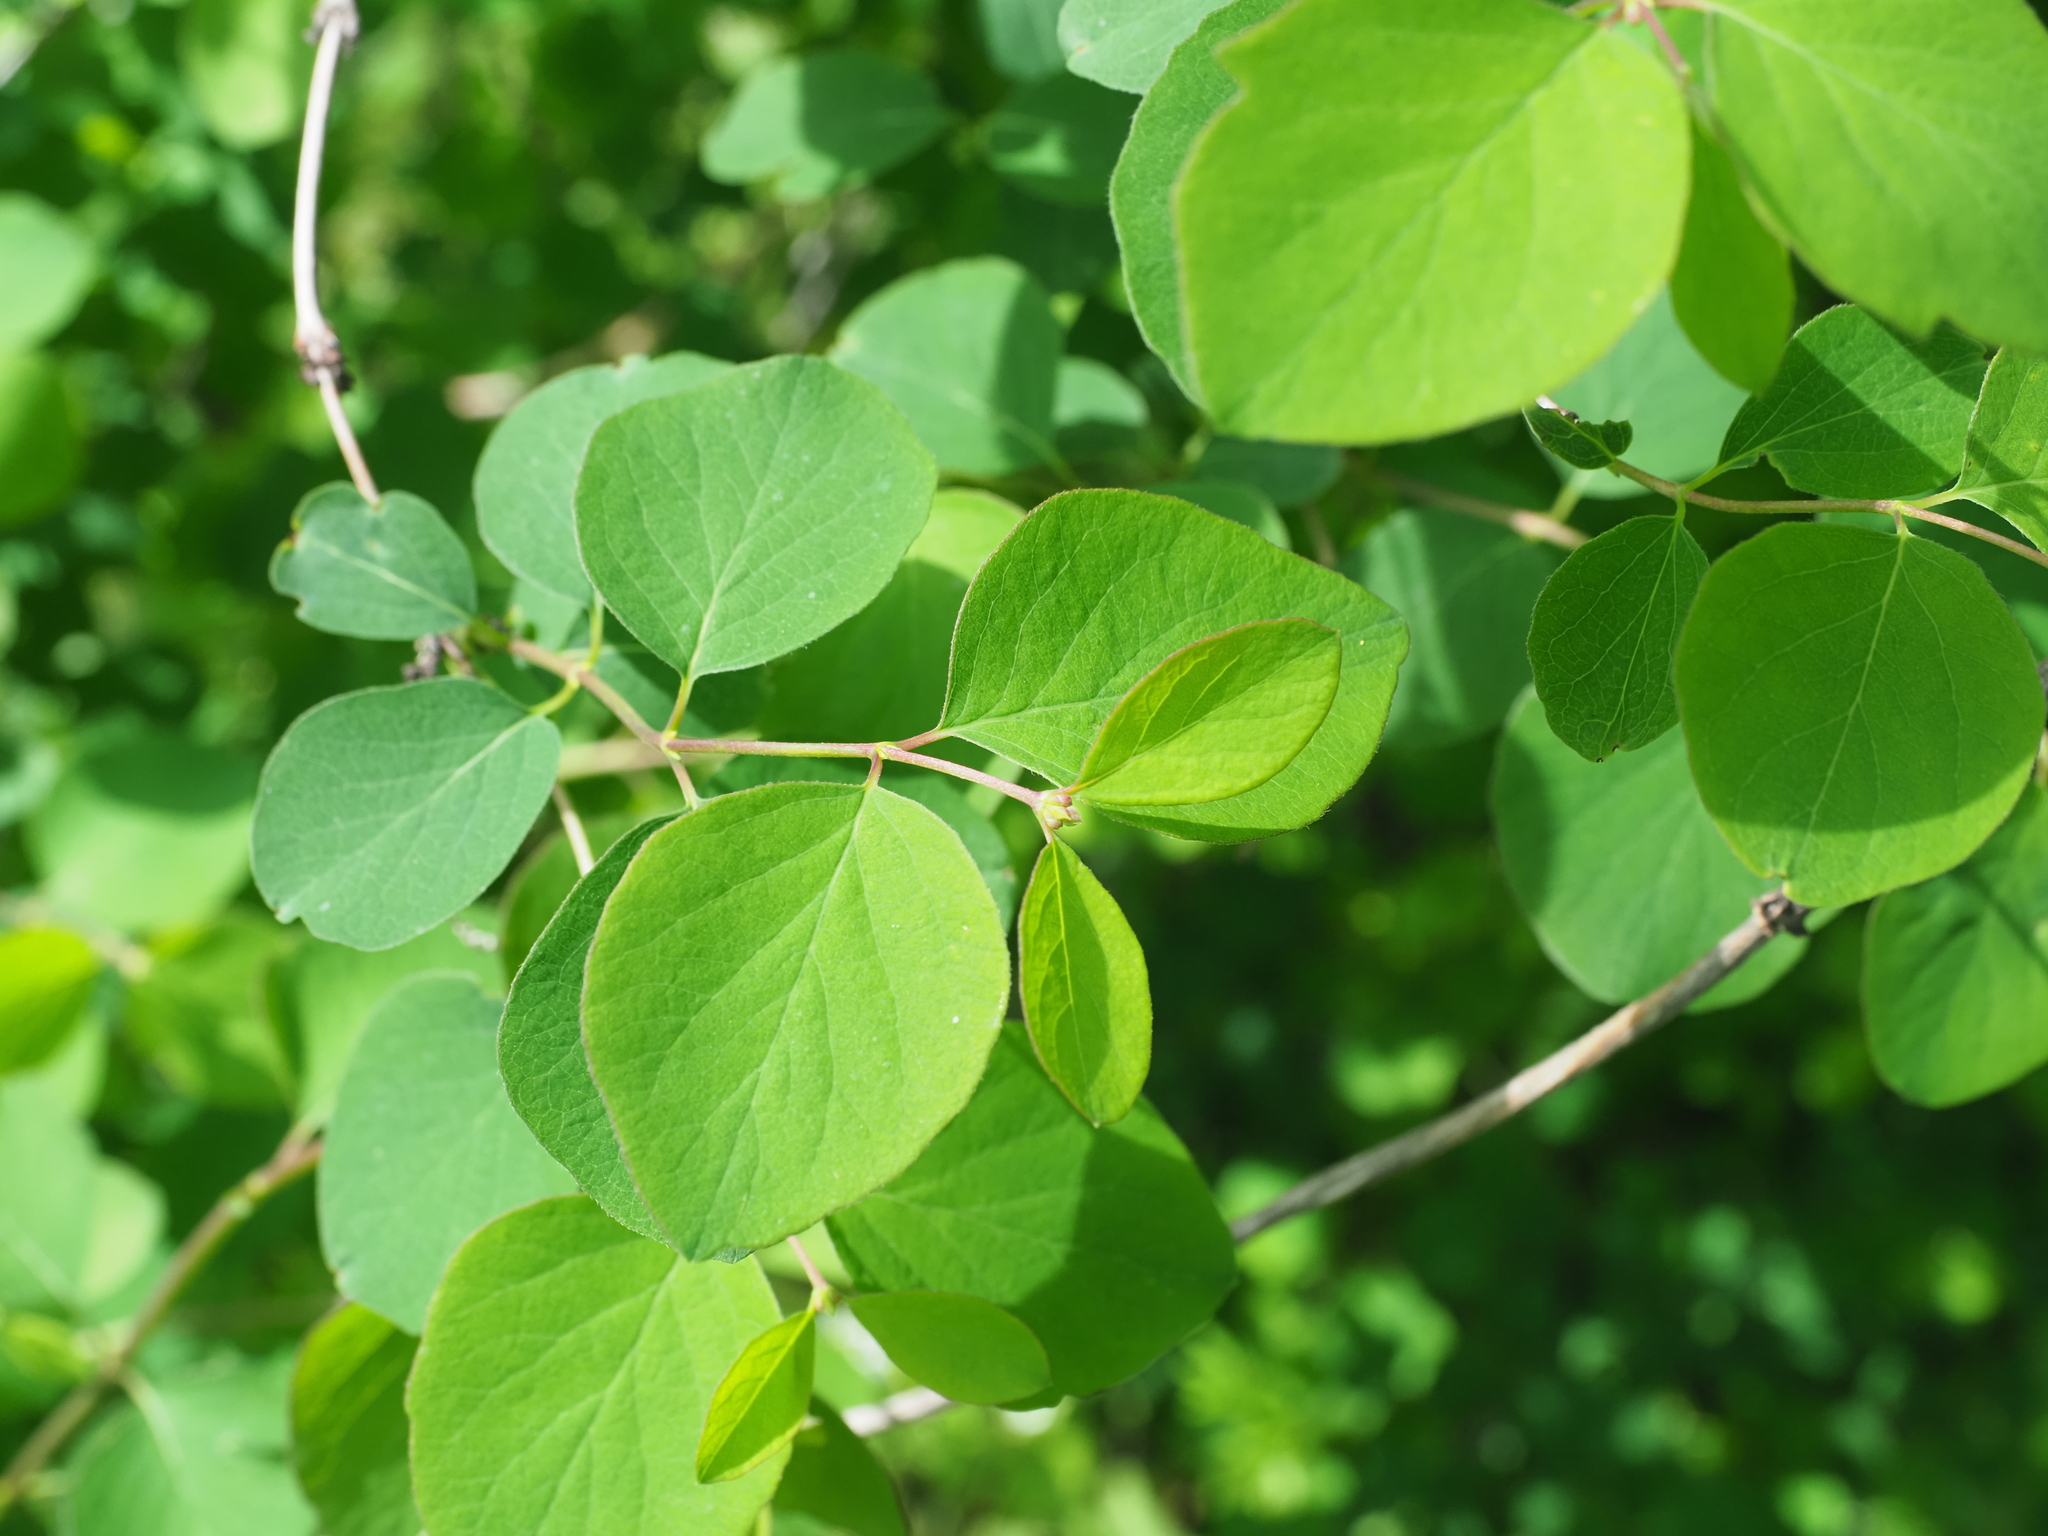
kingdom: Plantae
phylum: Tracheophyta
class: Magnoliopsida
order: Dipsacales
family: Caprifoliaceae
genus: Symphoricarpos
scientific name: Symphoricarpos albus
